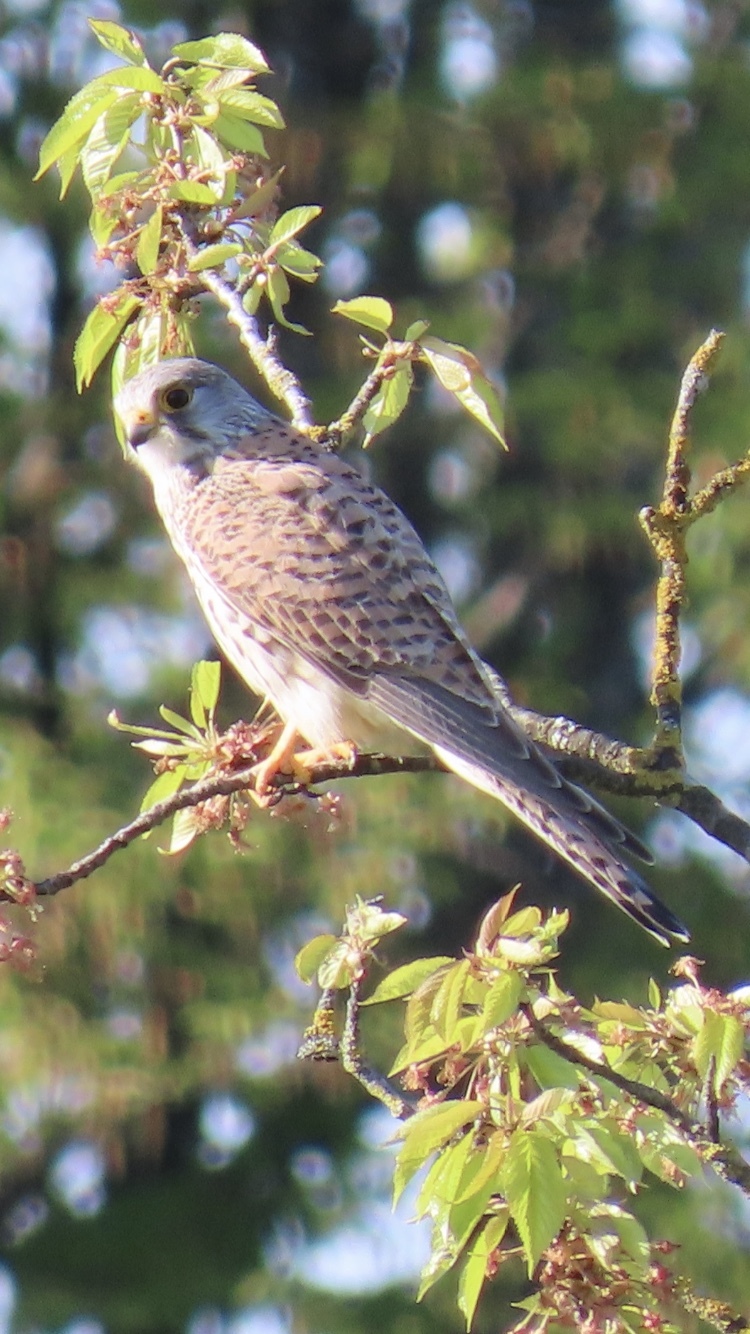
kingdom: Animalia
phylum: Chordata
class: Aves
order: Falconiformes
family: Falconidae
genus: Falco
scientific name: Falco tinnunculus
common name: Common kestrel
